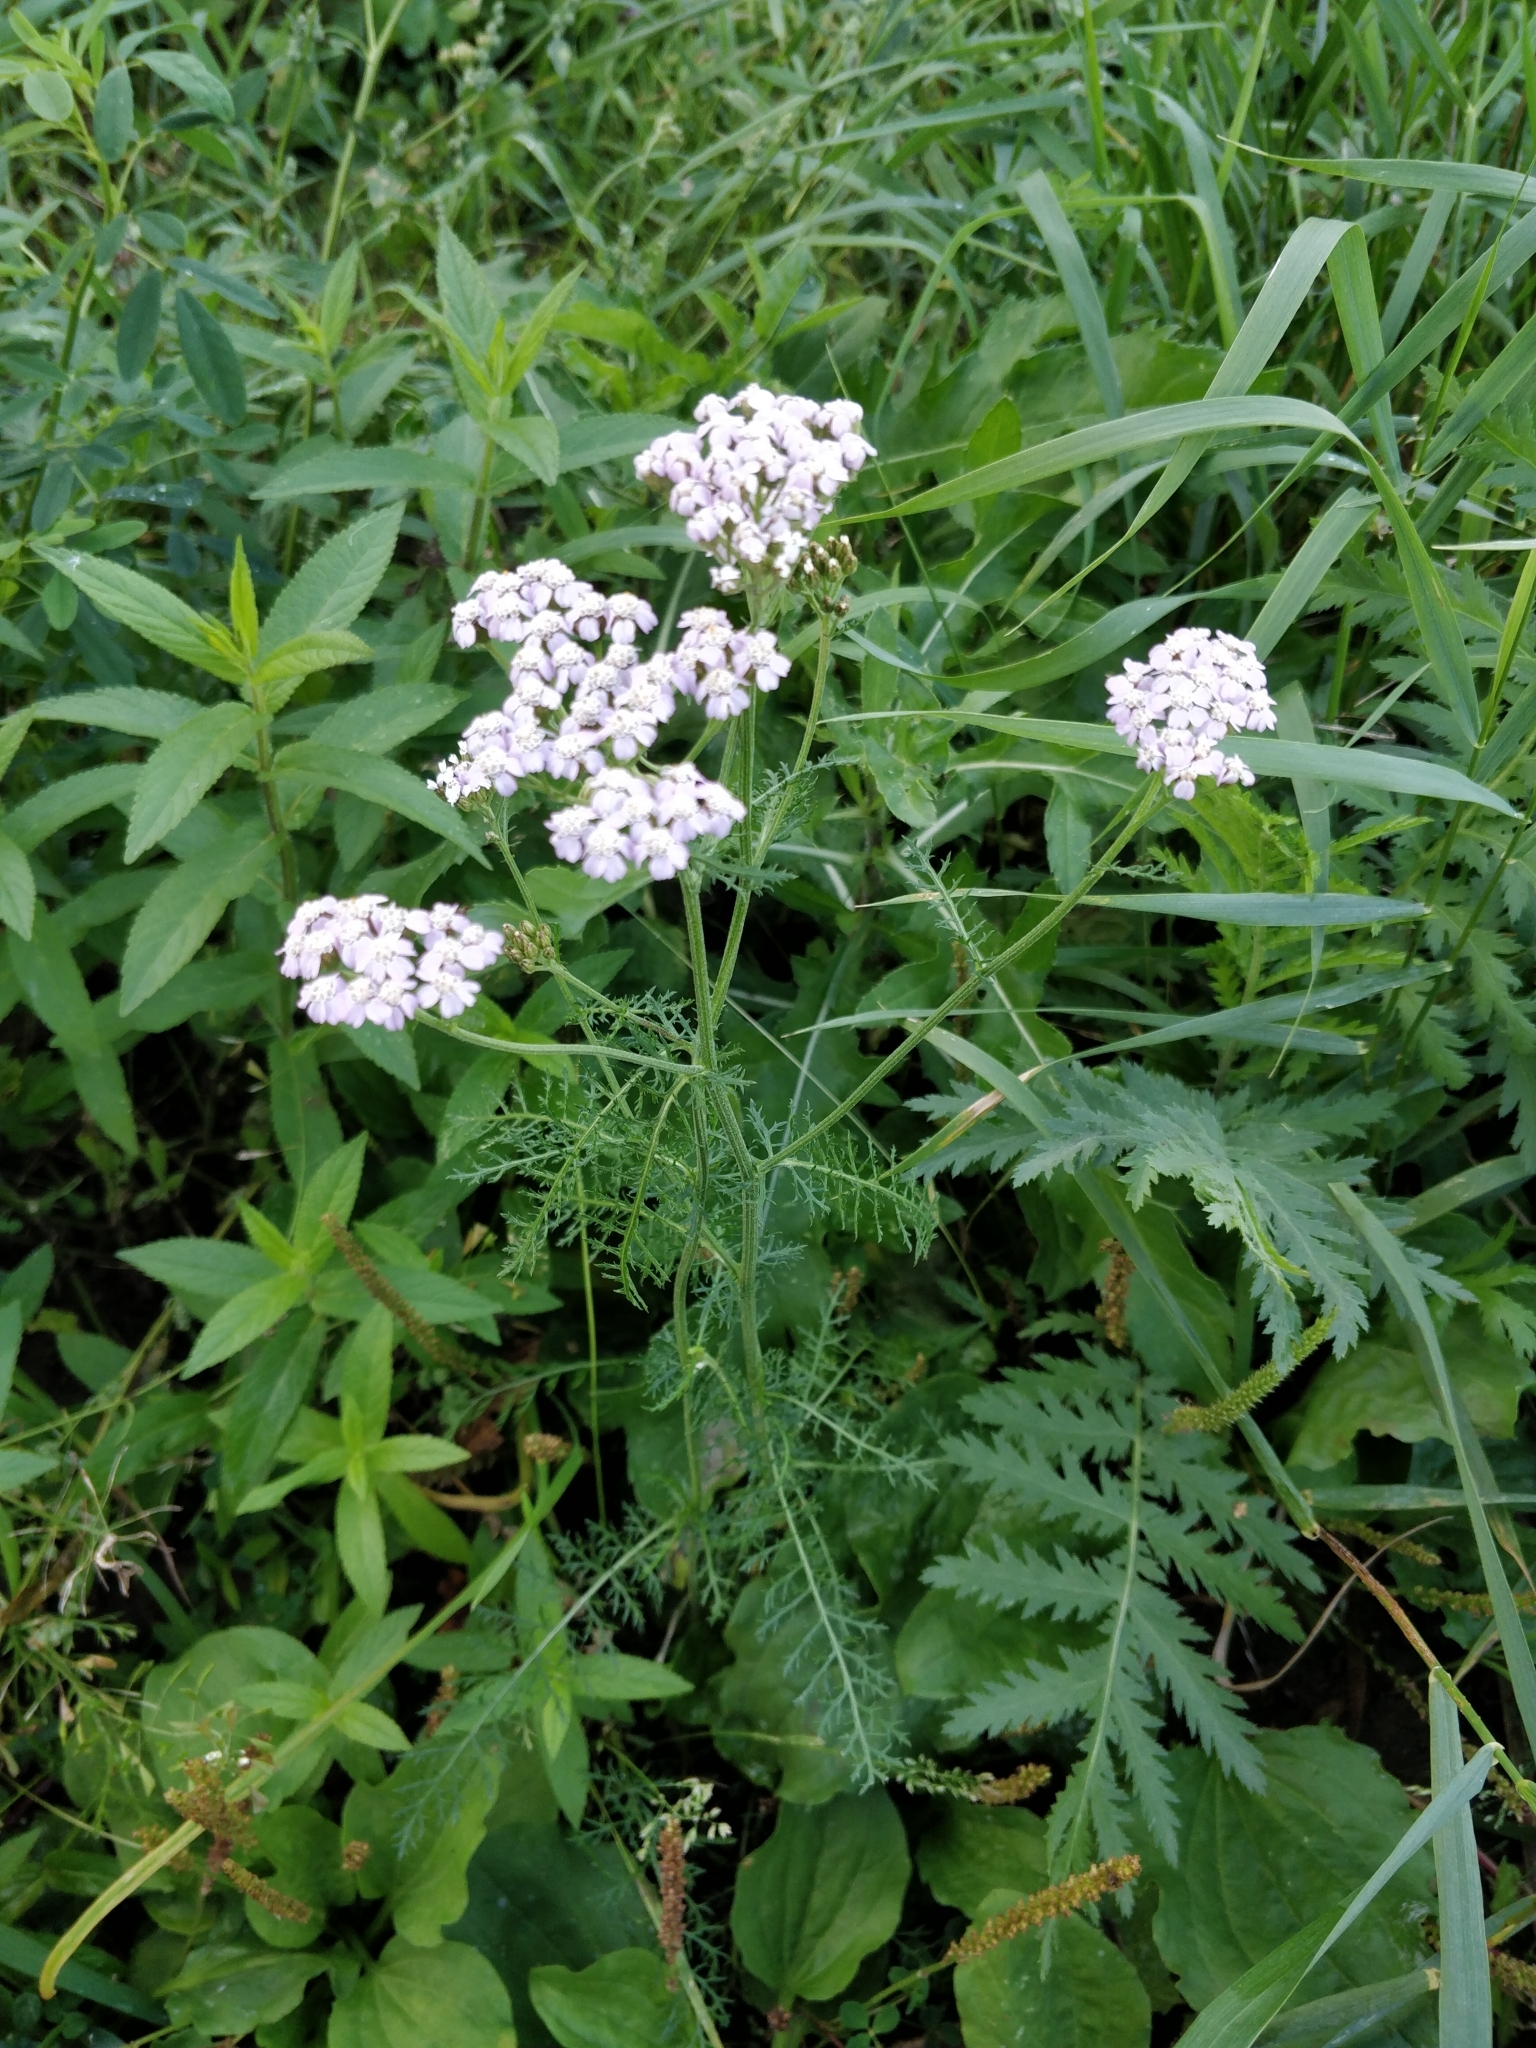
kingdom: Plantae
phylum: Tracheophyta
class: Magnoliopsida
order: Asterales
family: Asteraceae
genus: Achillea
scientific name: Achillea millefolium
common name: Yarrow
